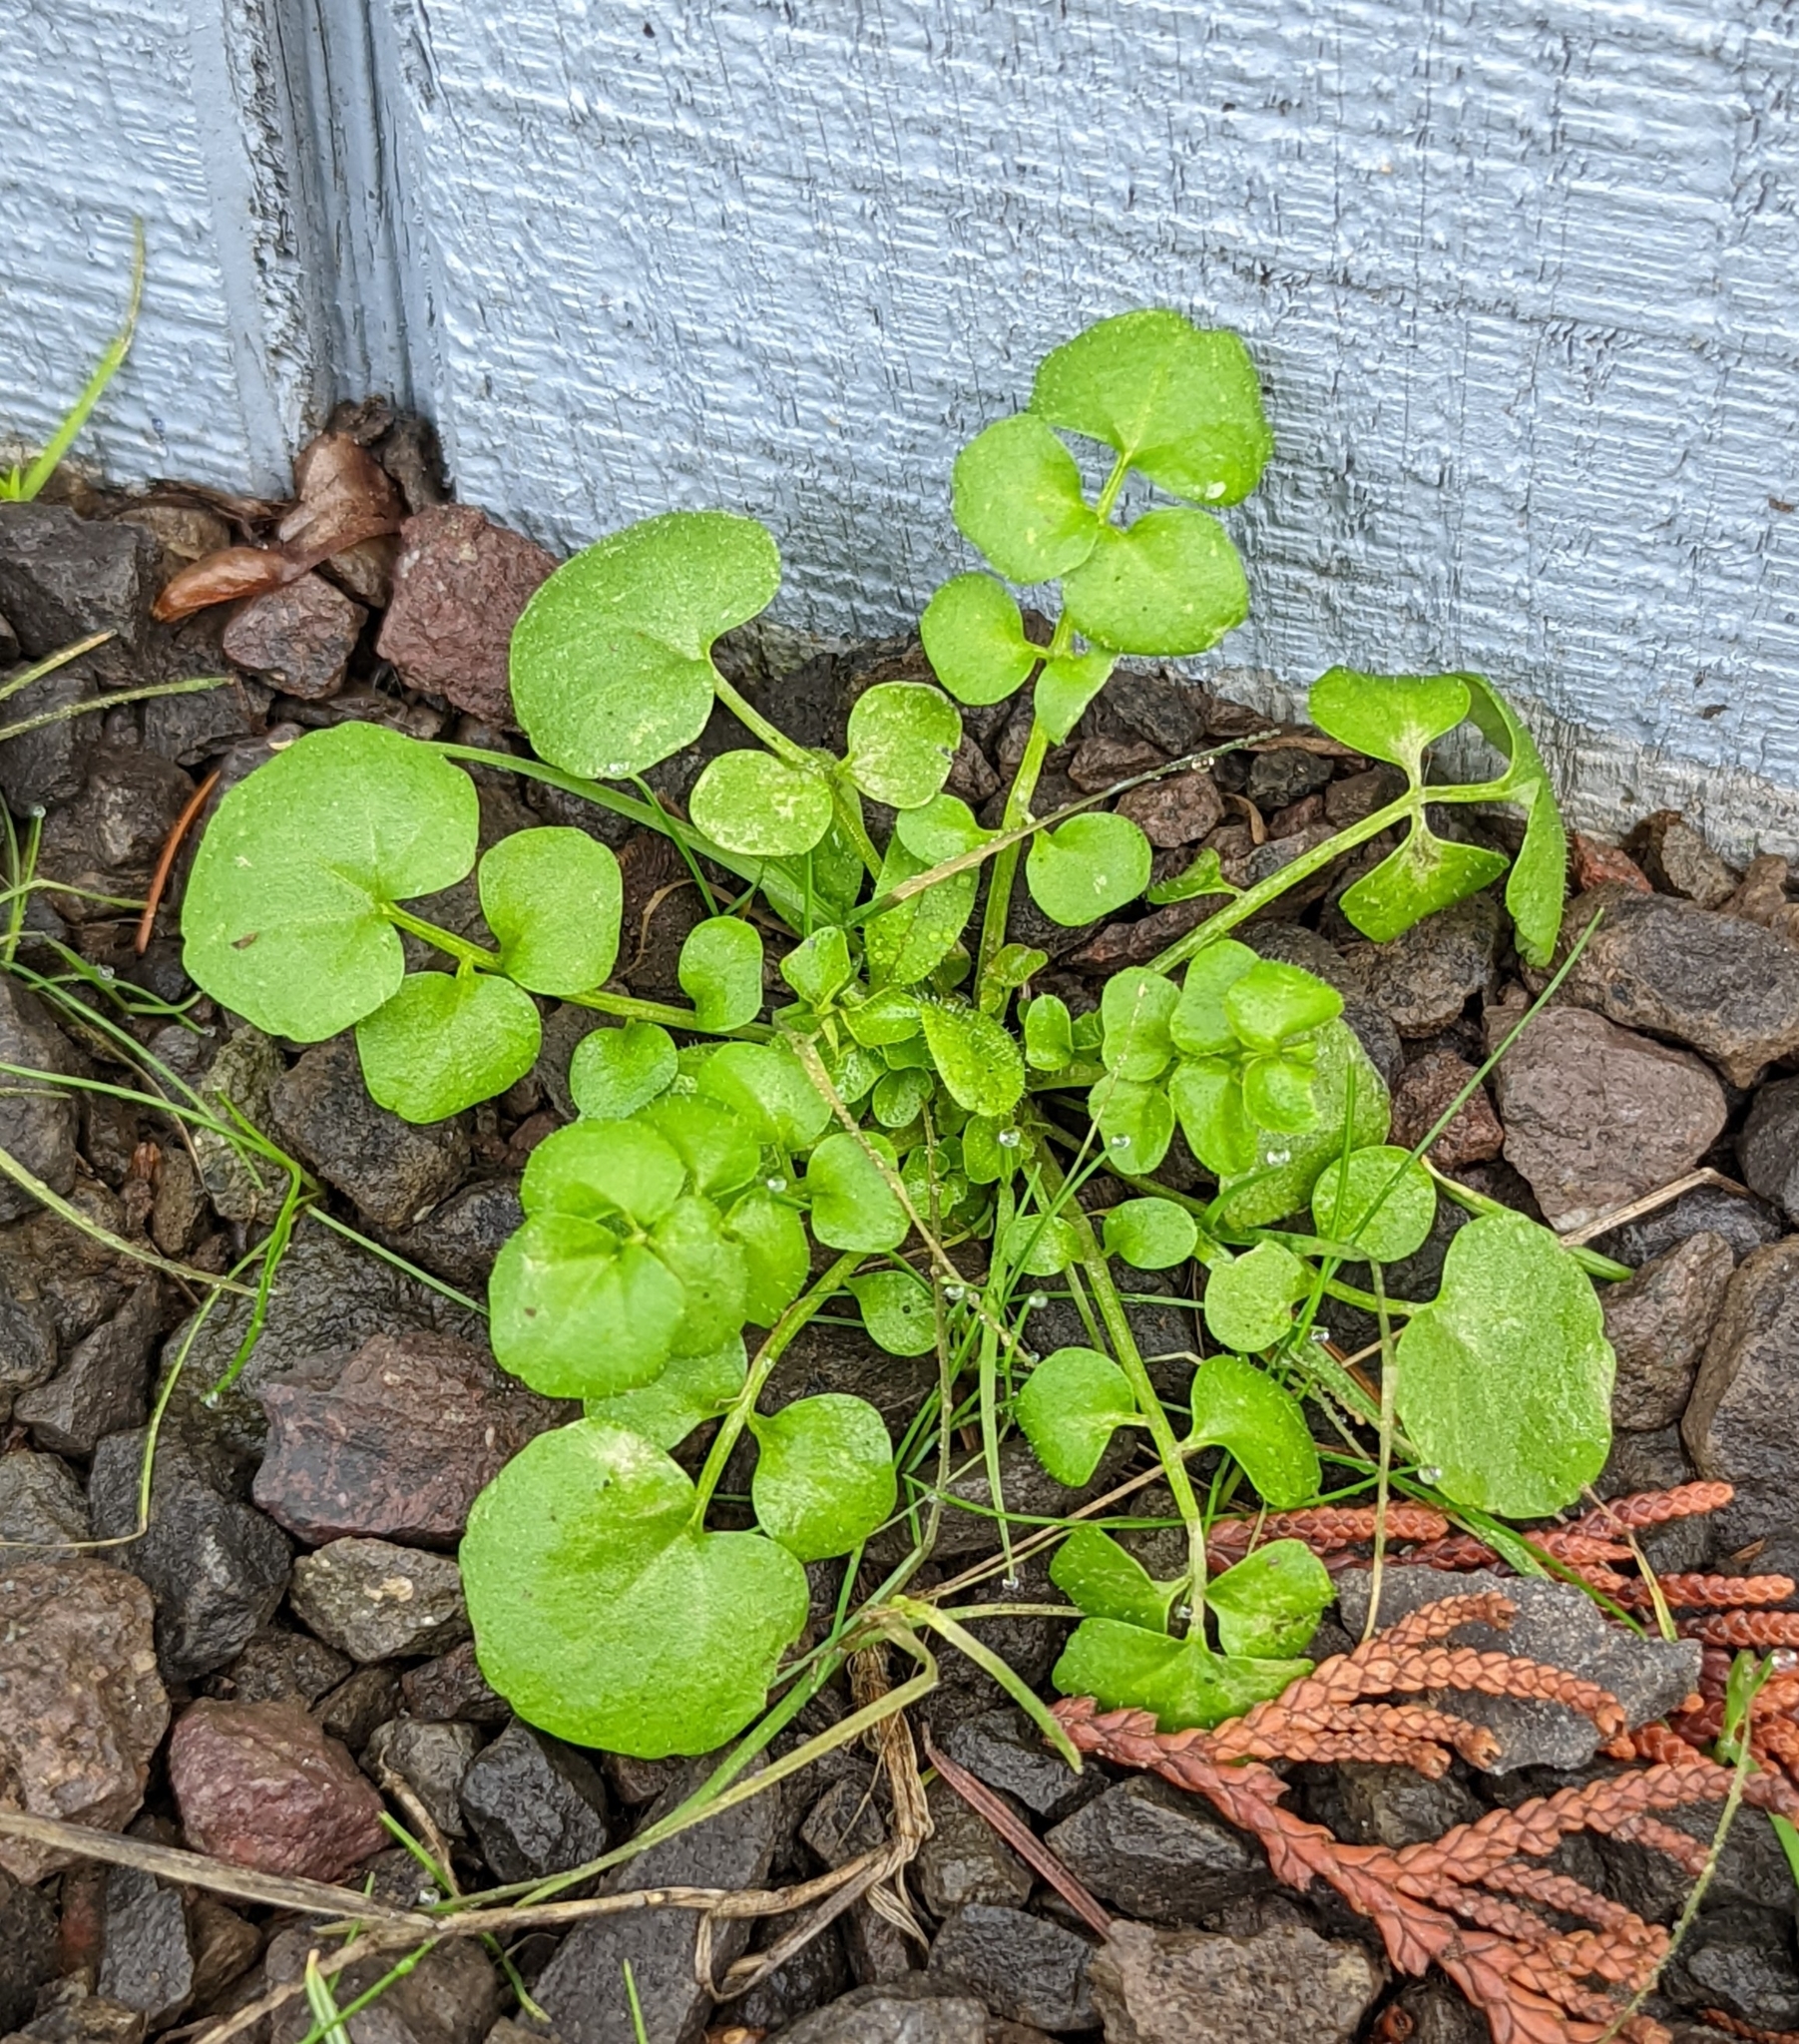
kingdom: Plantae
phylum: Tracheophyta
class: Magnoliopsida
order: Brassicales
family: Brassicaceae
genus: Cardamine
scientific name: Cardamine hirsuta
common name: Hairy bittercress
